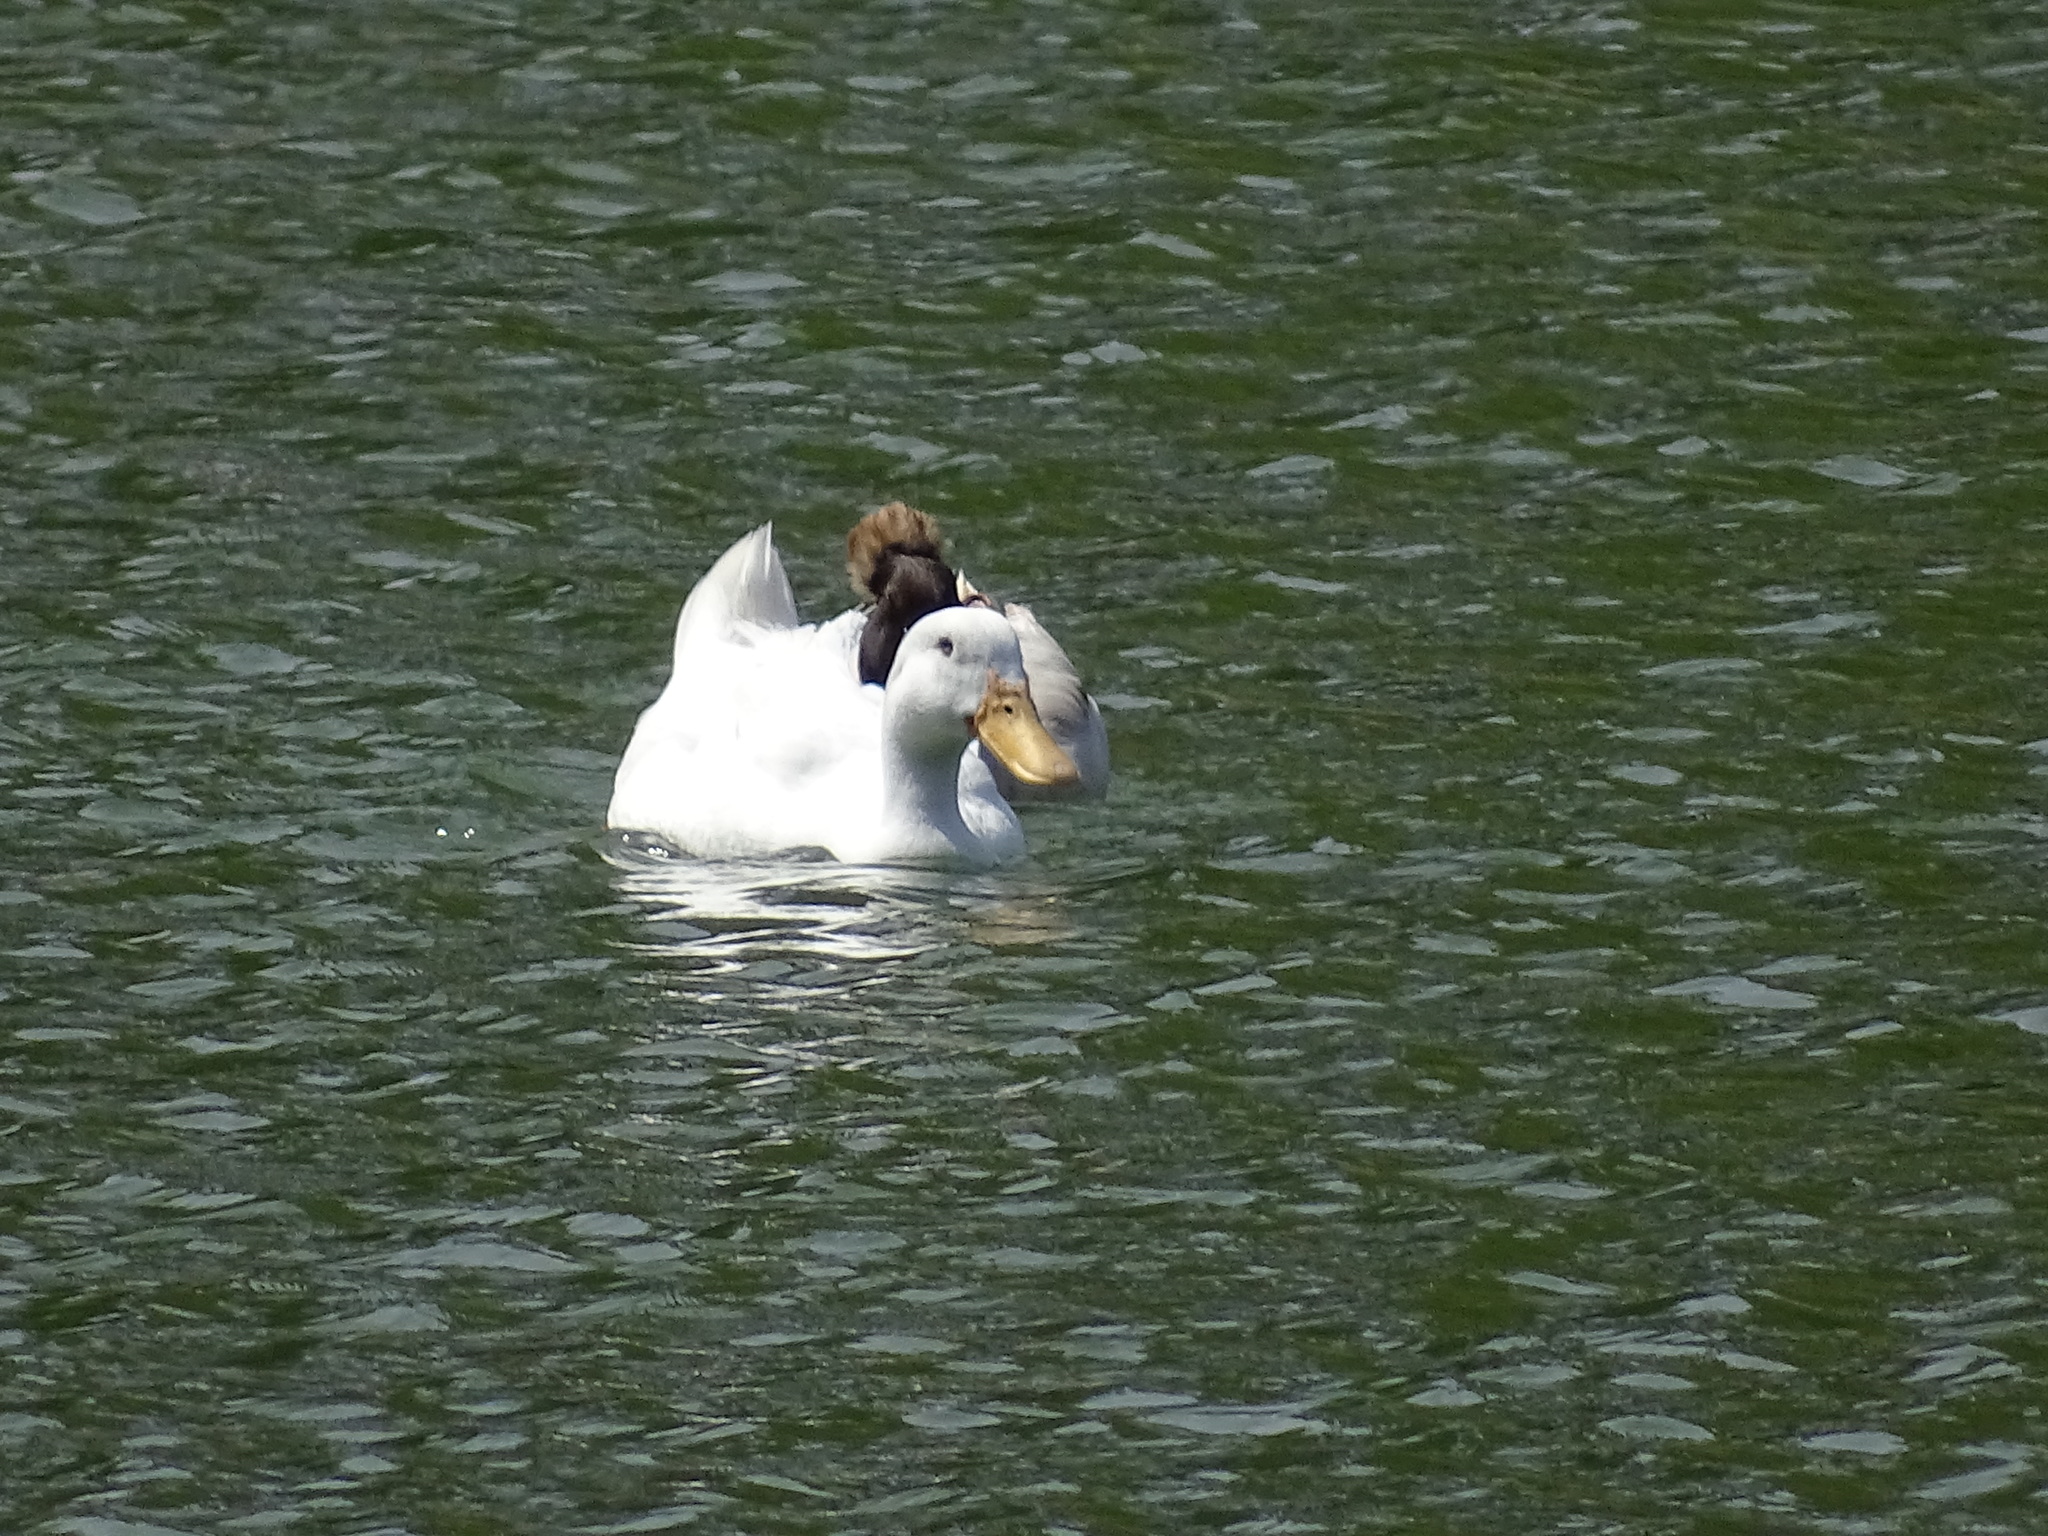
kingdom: Animalia
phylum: Chordata
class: Aves
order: Anseriformes
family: Anatidae
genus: Anas
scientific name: Anas platyrhynchos
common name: Mallard
